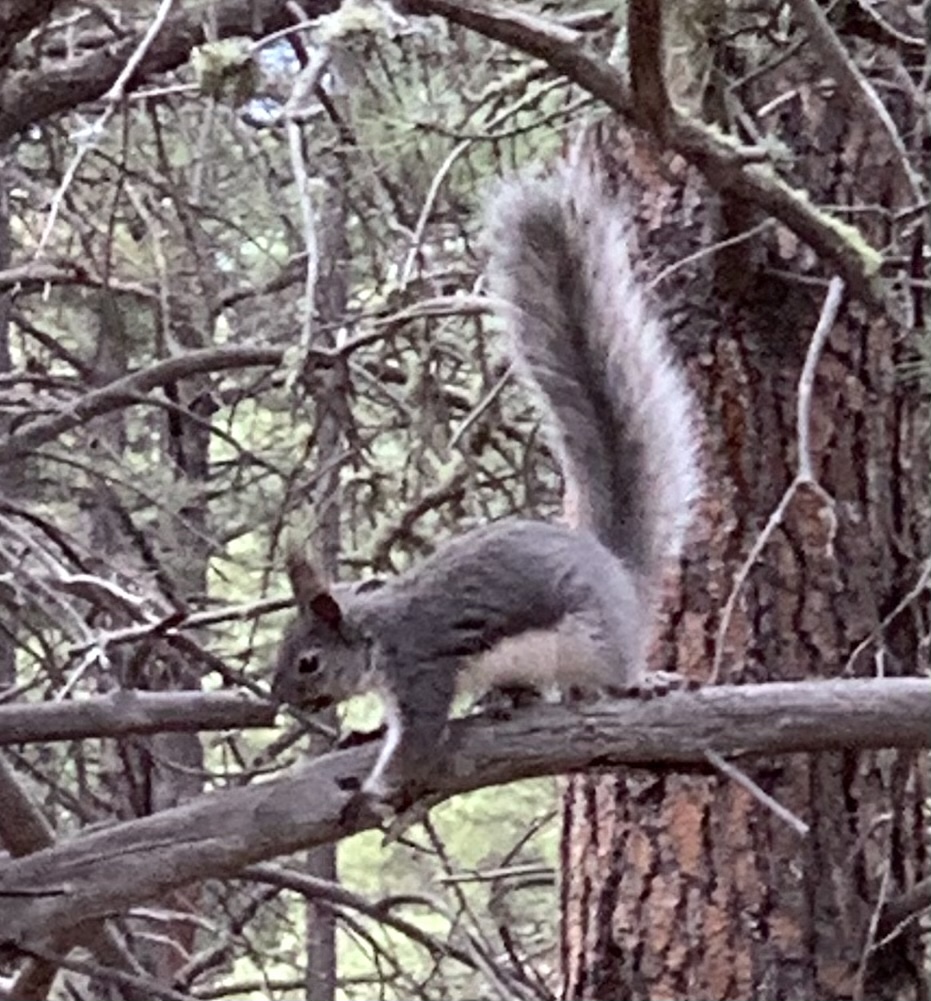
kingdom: Animalia
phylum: Chordata
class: Mammalia
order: Rodentia
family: Sciuridae
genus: Sciurus
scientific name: Sciurus aberti
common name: Abert's squirrel
